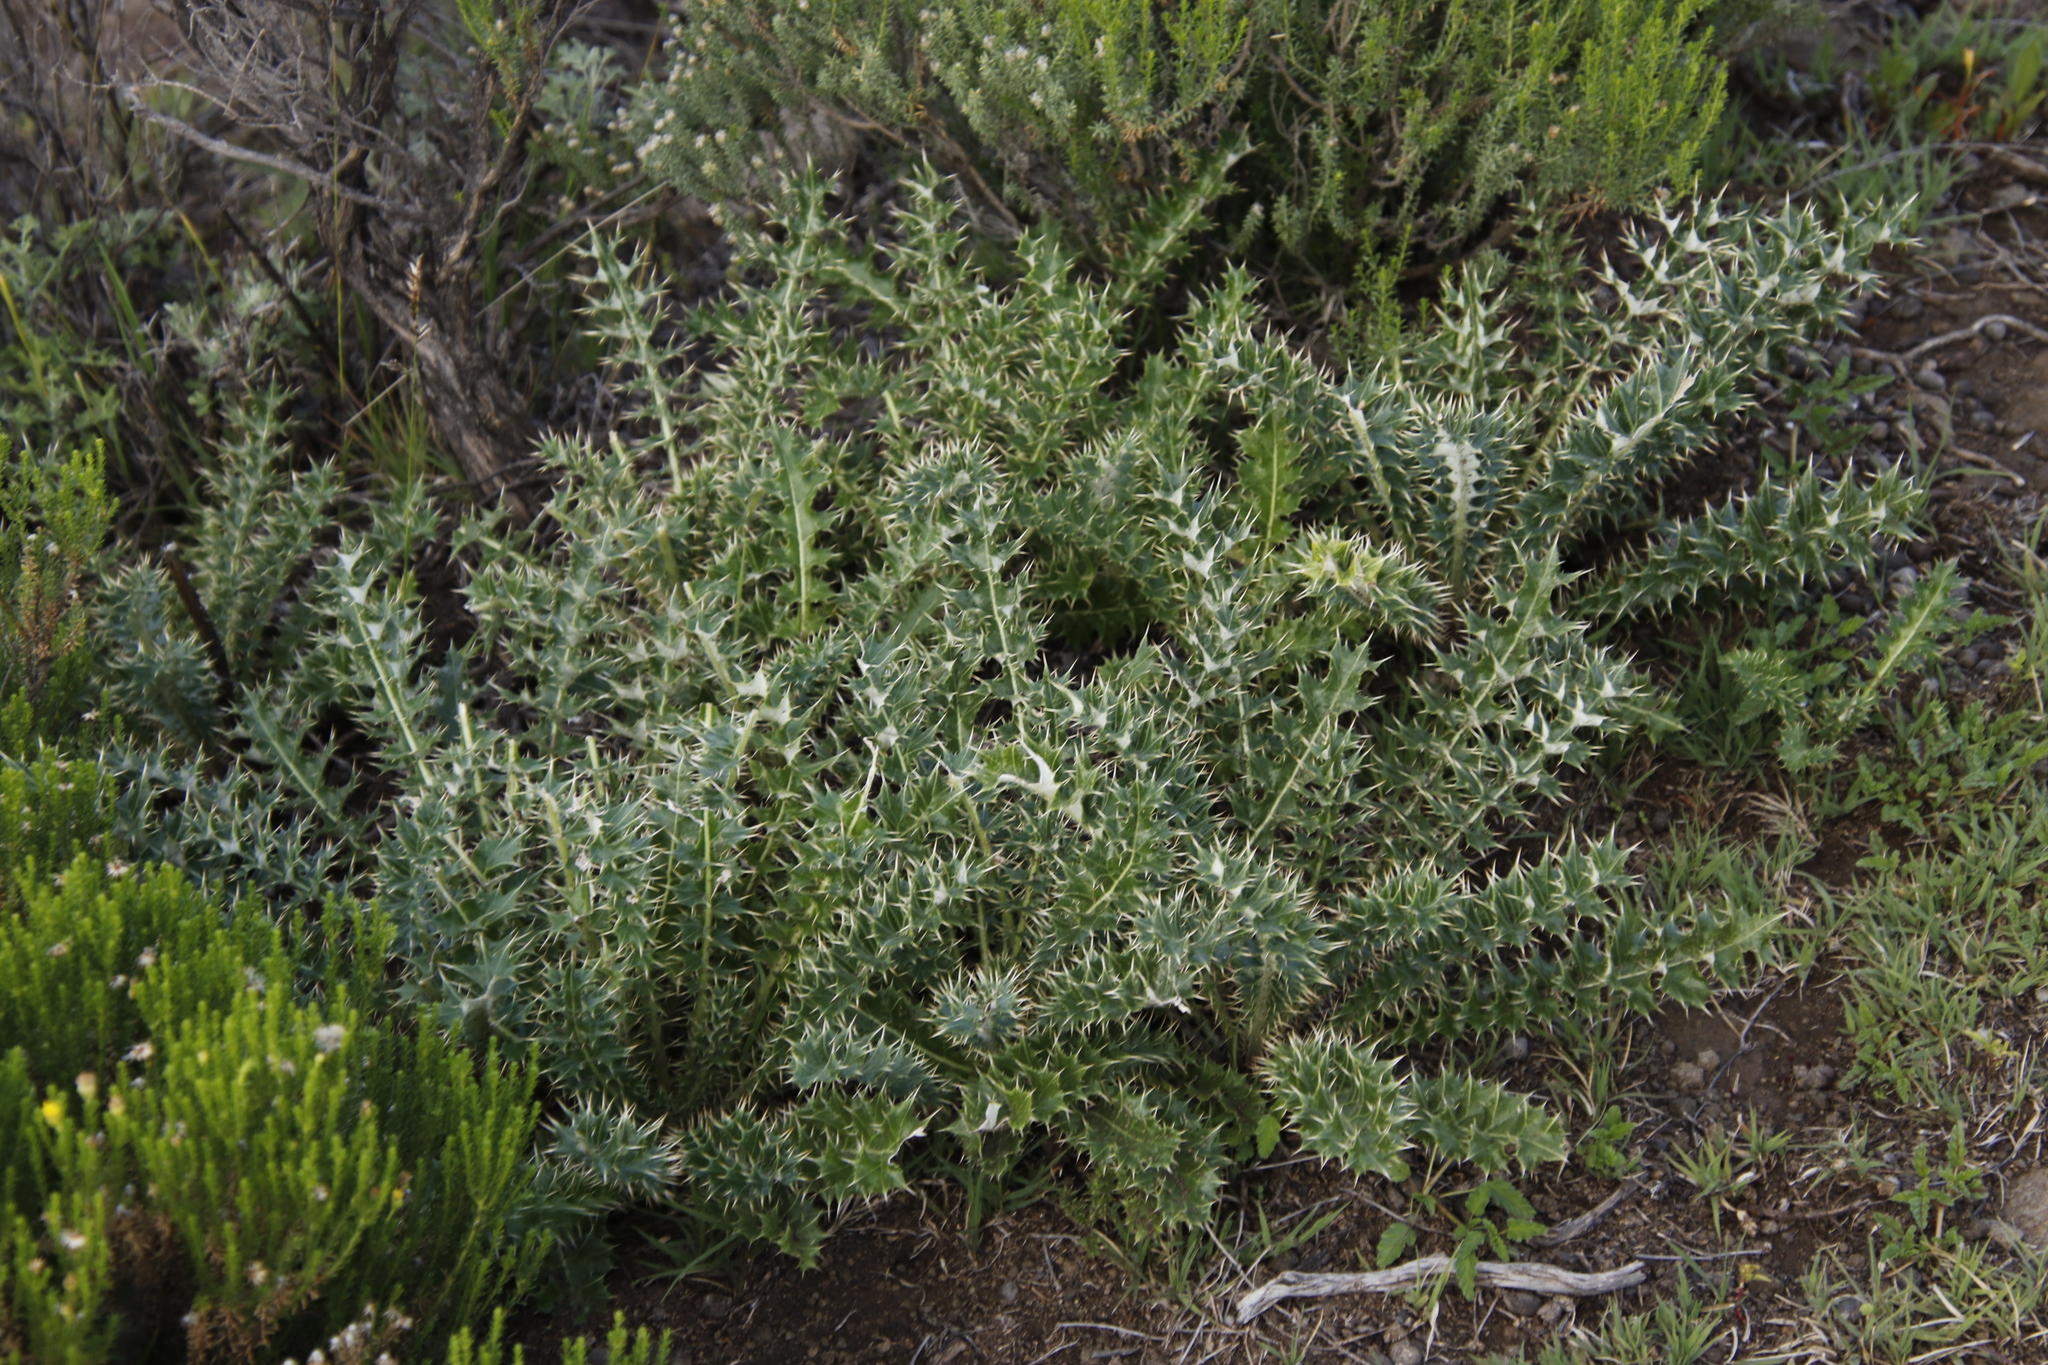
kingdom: Plantae
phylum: Tracheophyta
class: Magnoliopsida
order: Asterales
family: Asteraceae
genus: Berkheya
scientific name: Berkheya cirsiifolia
